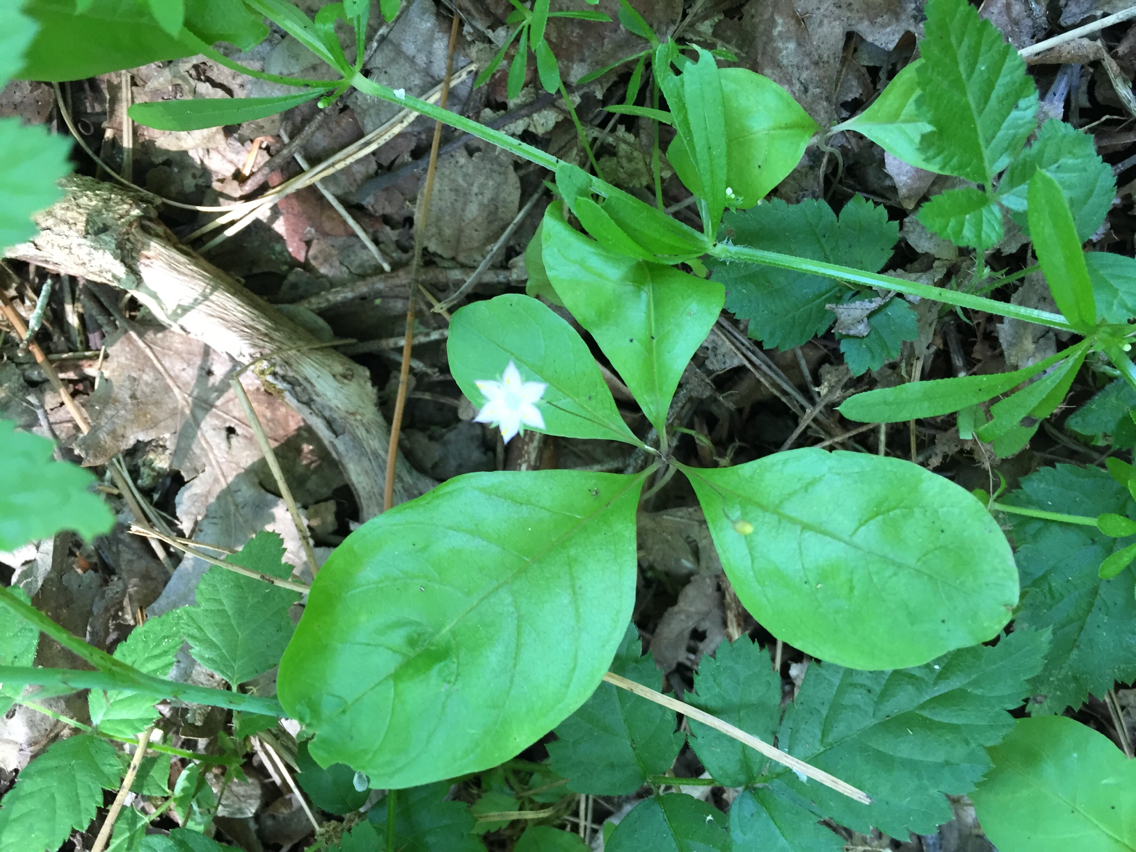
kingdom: Plantae
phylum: Tracheophyta
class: Magnoliopsida
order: Ericales
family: Primulaceae
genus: Lysimachia
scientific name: Lysimachia latifolia
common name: Pacific starflower
